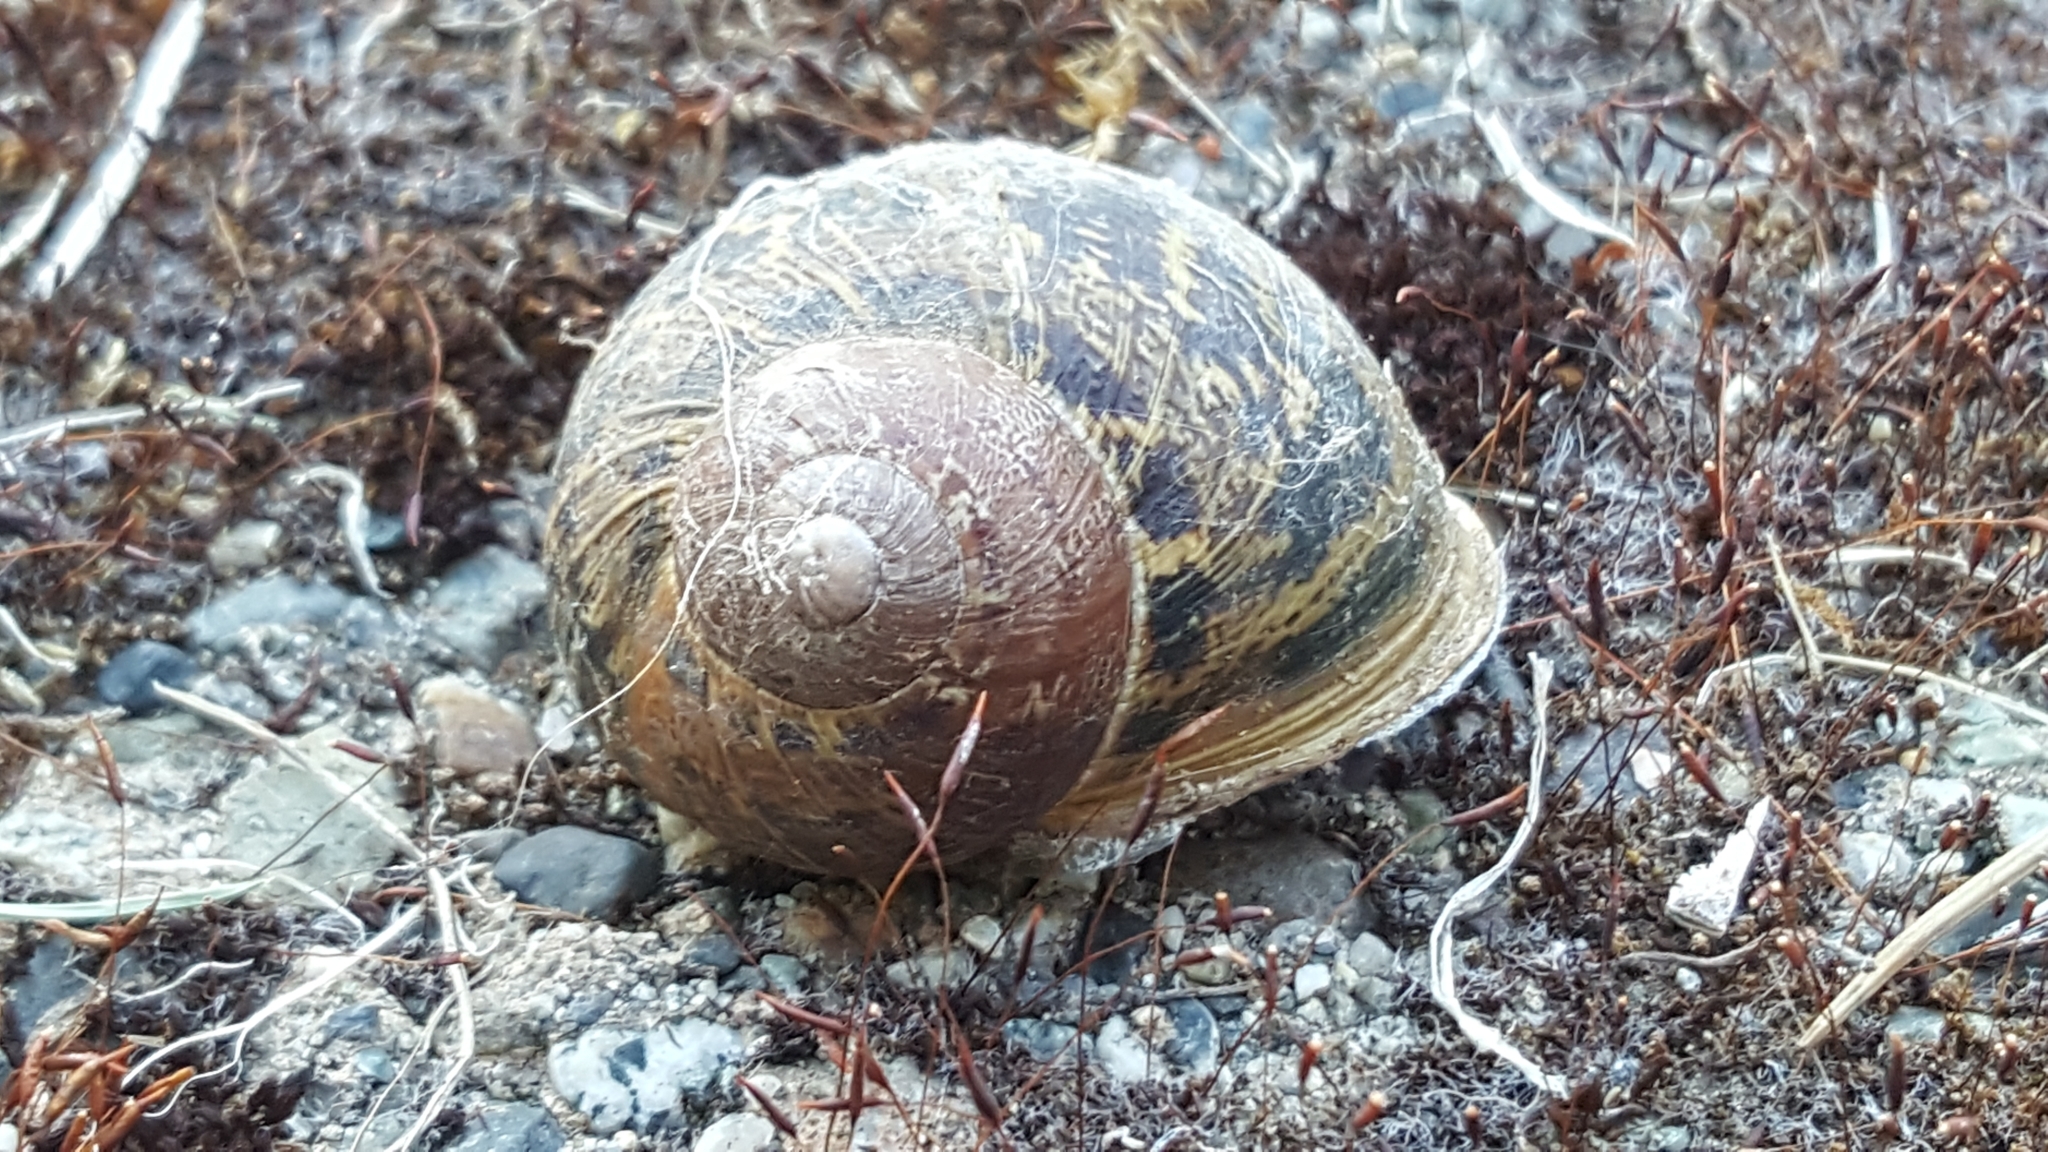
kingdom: Animalia
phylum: Mollusca
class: Gastropoda
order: Stylommatophora
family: Helicidae
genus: Cornu
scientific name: Cornu aspersum
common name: Brown garden snail
